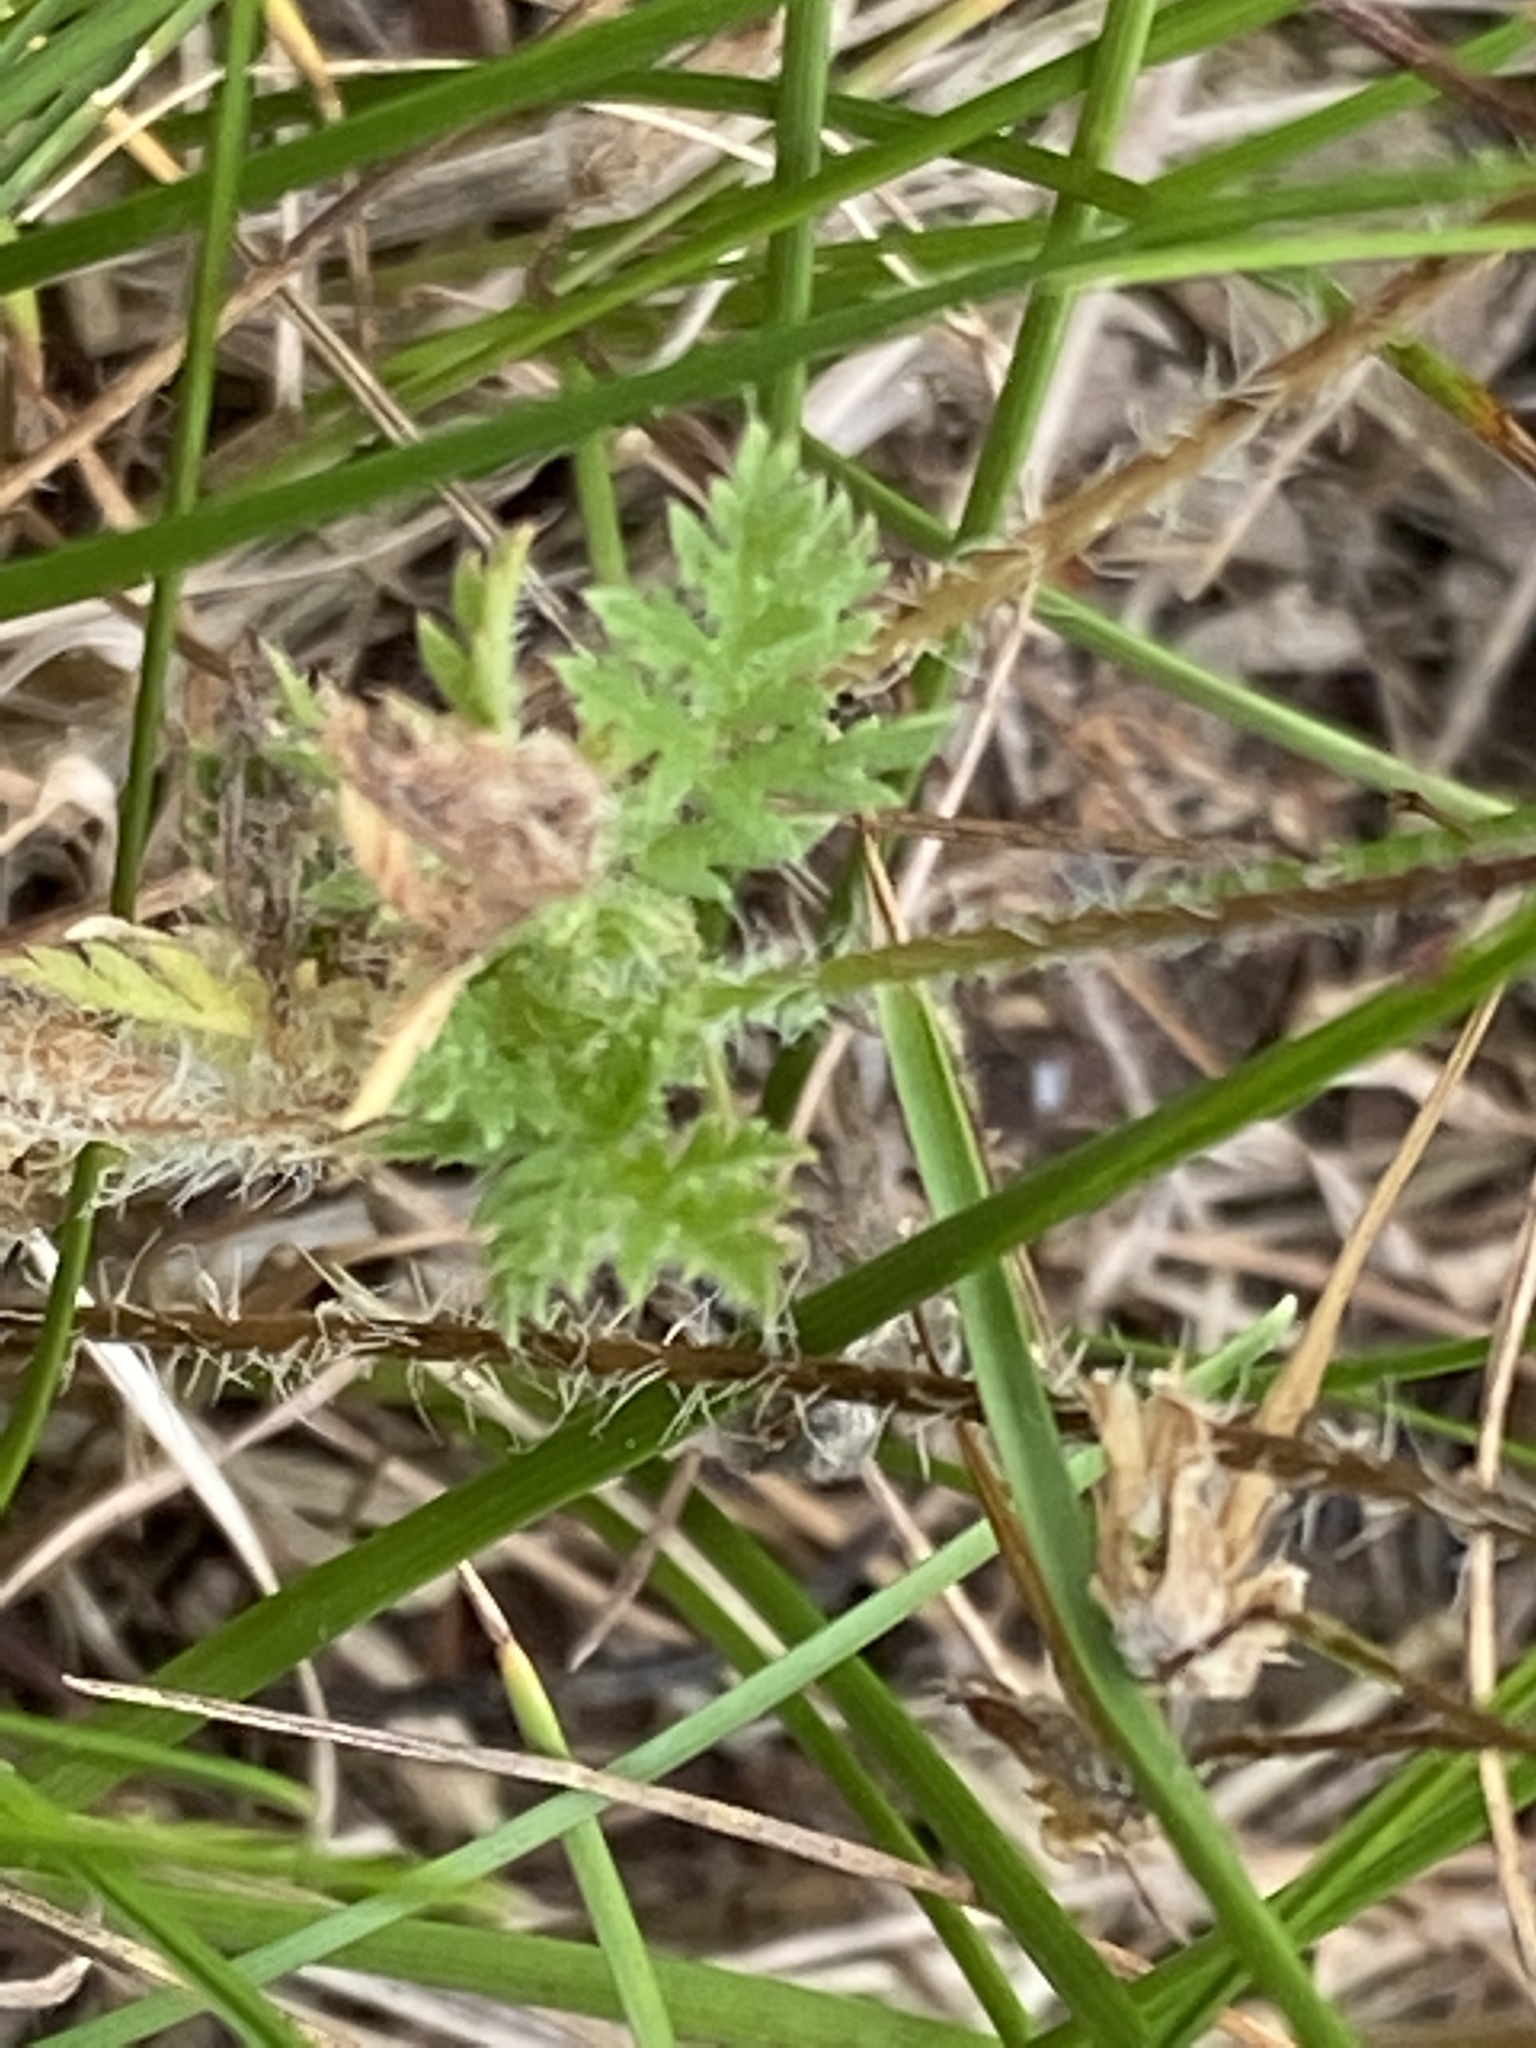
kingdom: Plantae
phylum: Tracheophyta
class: Magnoliopsida
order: Geraniales
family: Geraniaceae
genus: Erodium
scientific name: Erodium cicutarium
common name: Common stork's-bill
